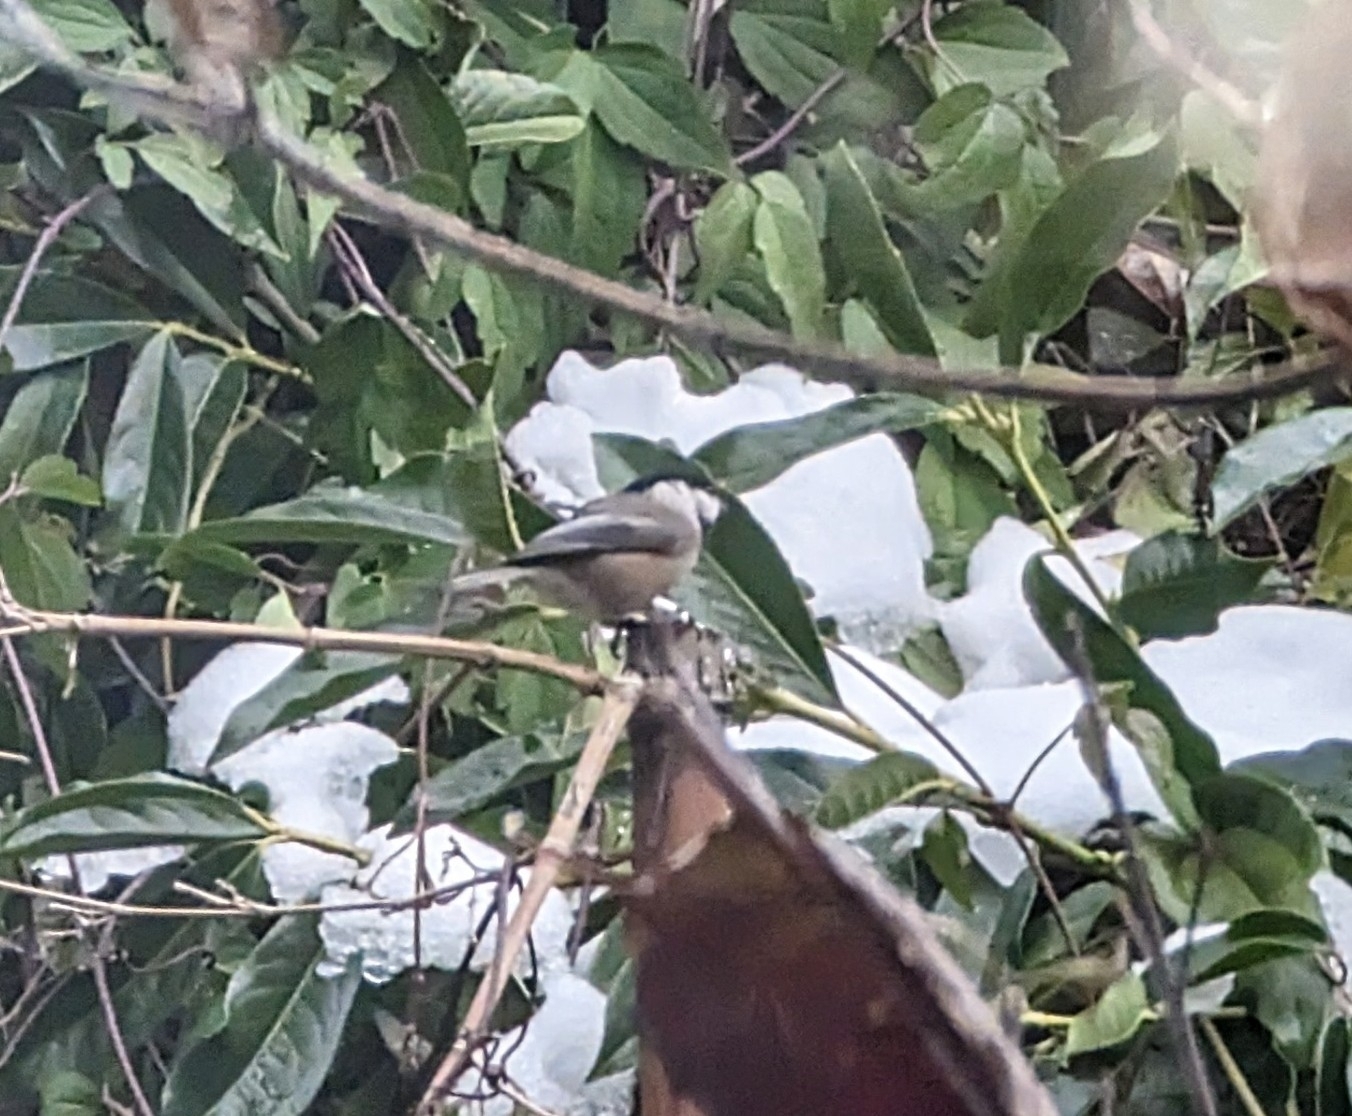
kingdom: Animalia
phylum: Chordata
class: Aves
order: Passeriformes
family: Paridae
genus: Poecile
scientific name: Poecile atricapillus
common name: Black-capped chickadee
